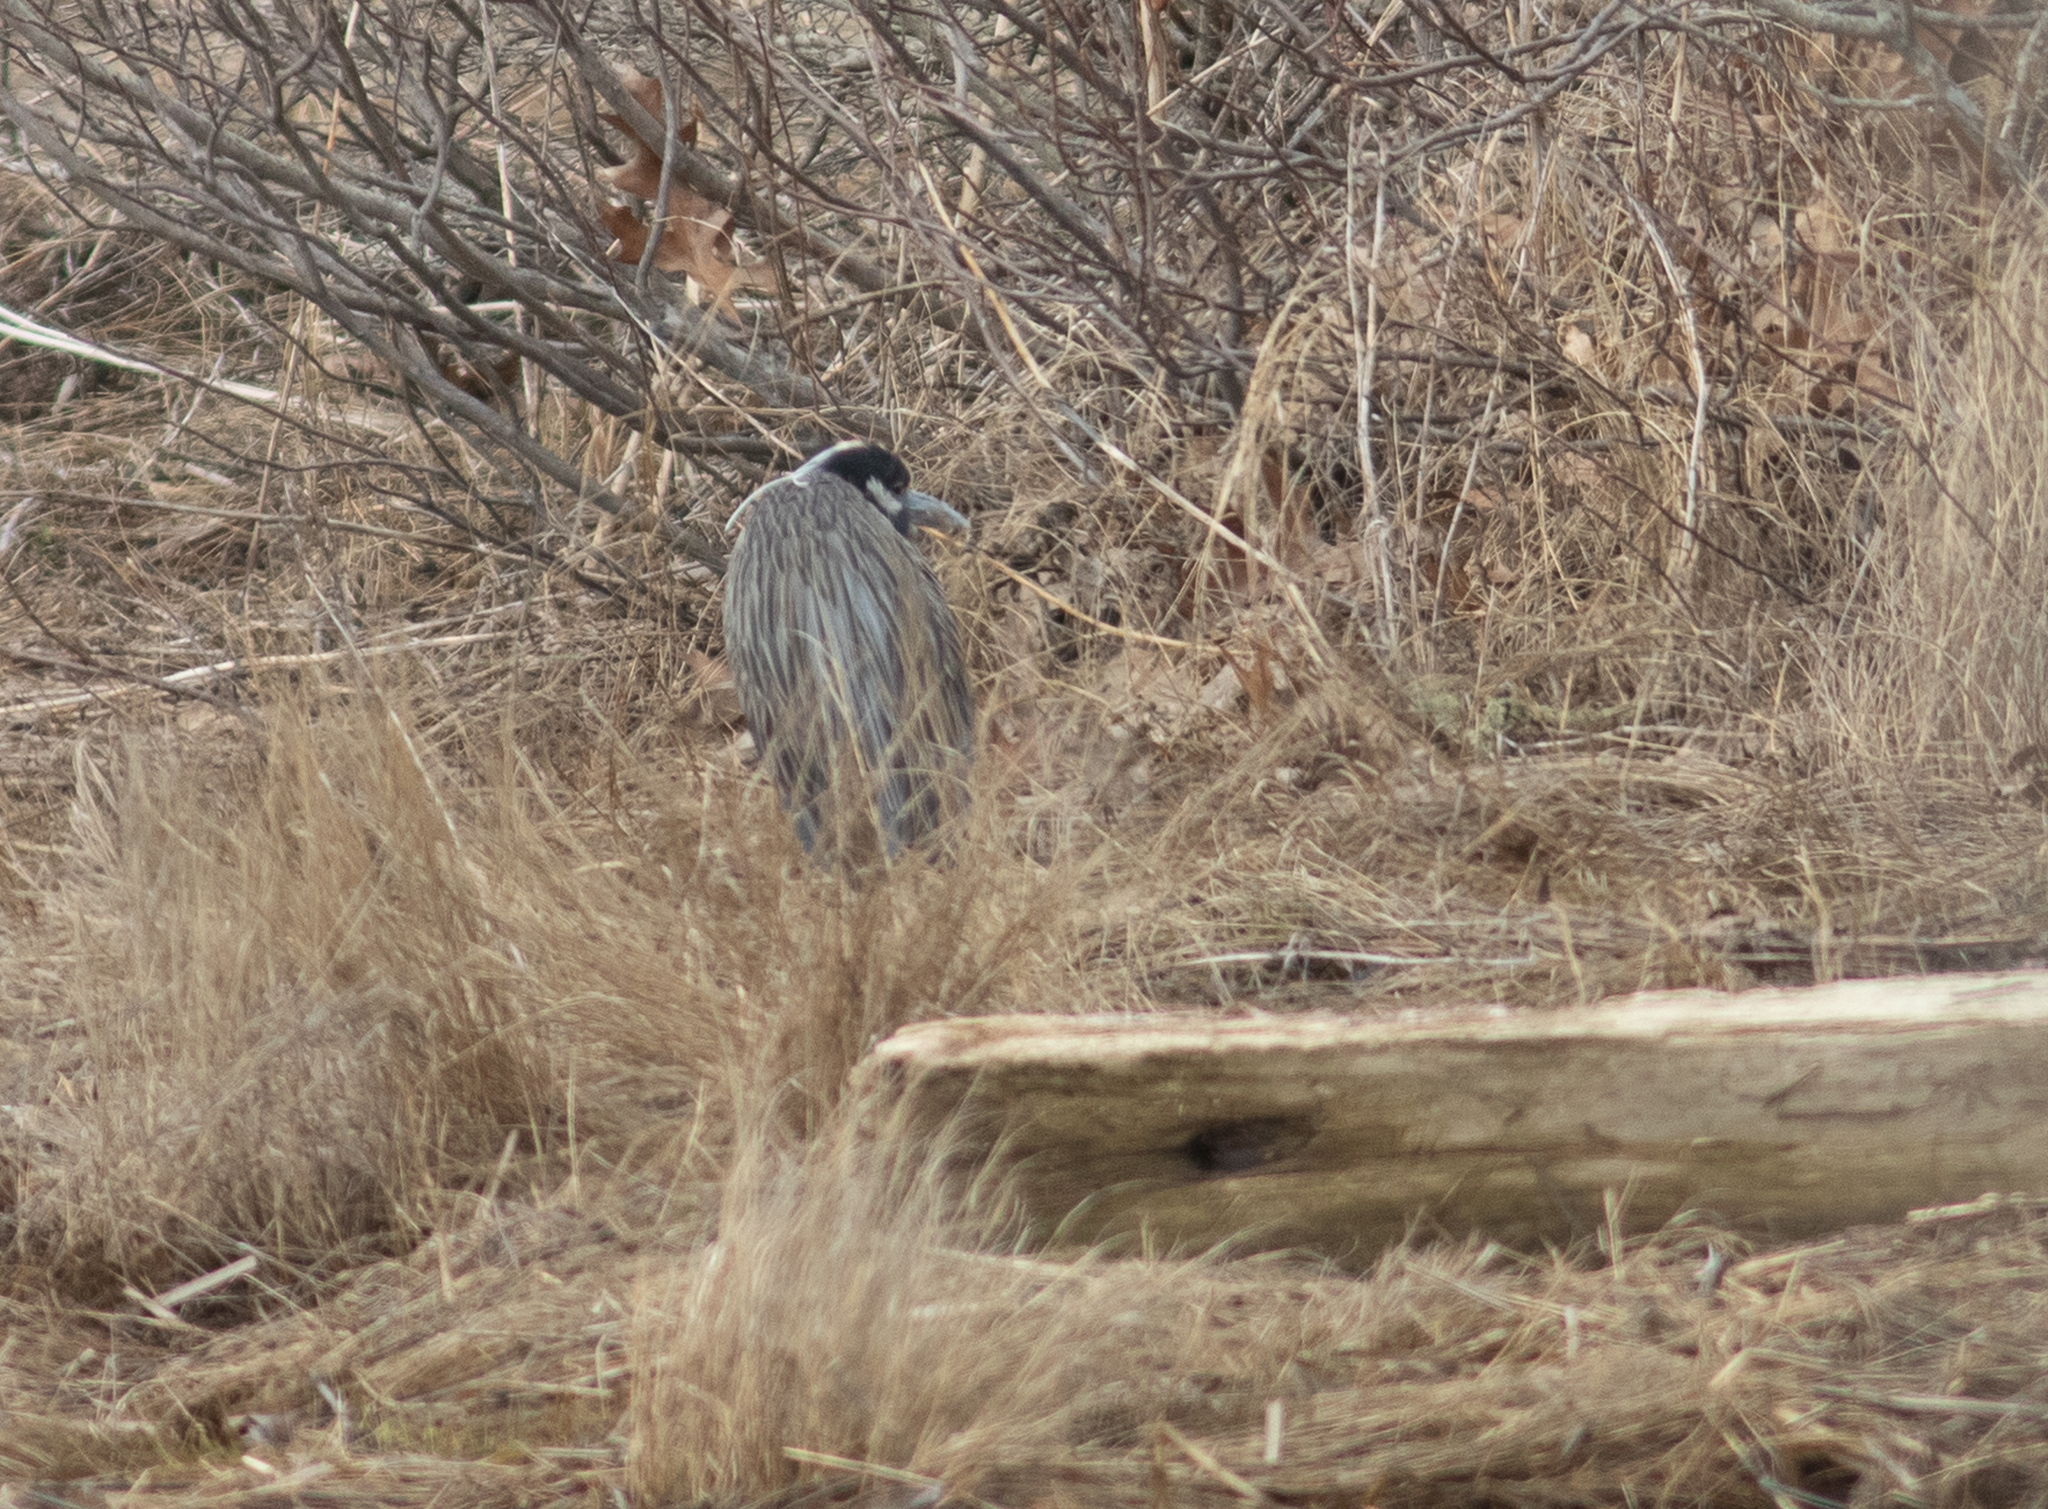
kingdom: Animalia
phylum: Chordata
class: Aves
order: Pelecaniformes
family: Ardeidae
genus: Nyctanassa
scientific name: Nyctanassa violacea
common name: Yellow-crowned night heron
